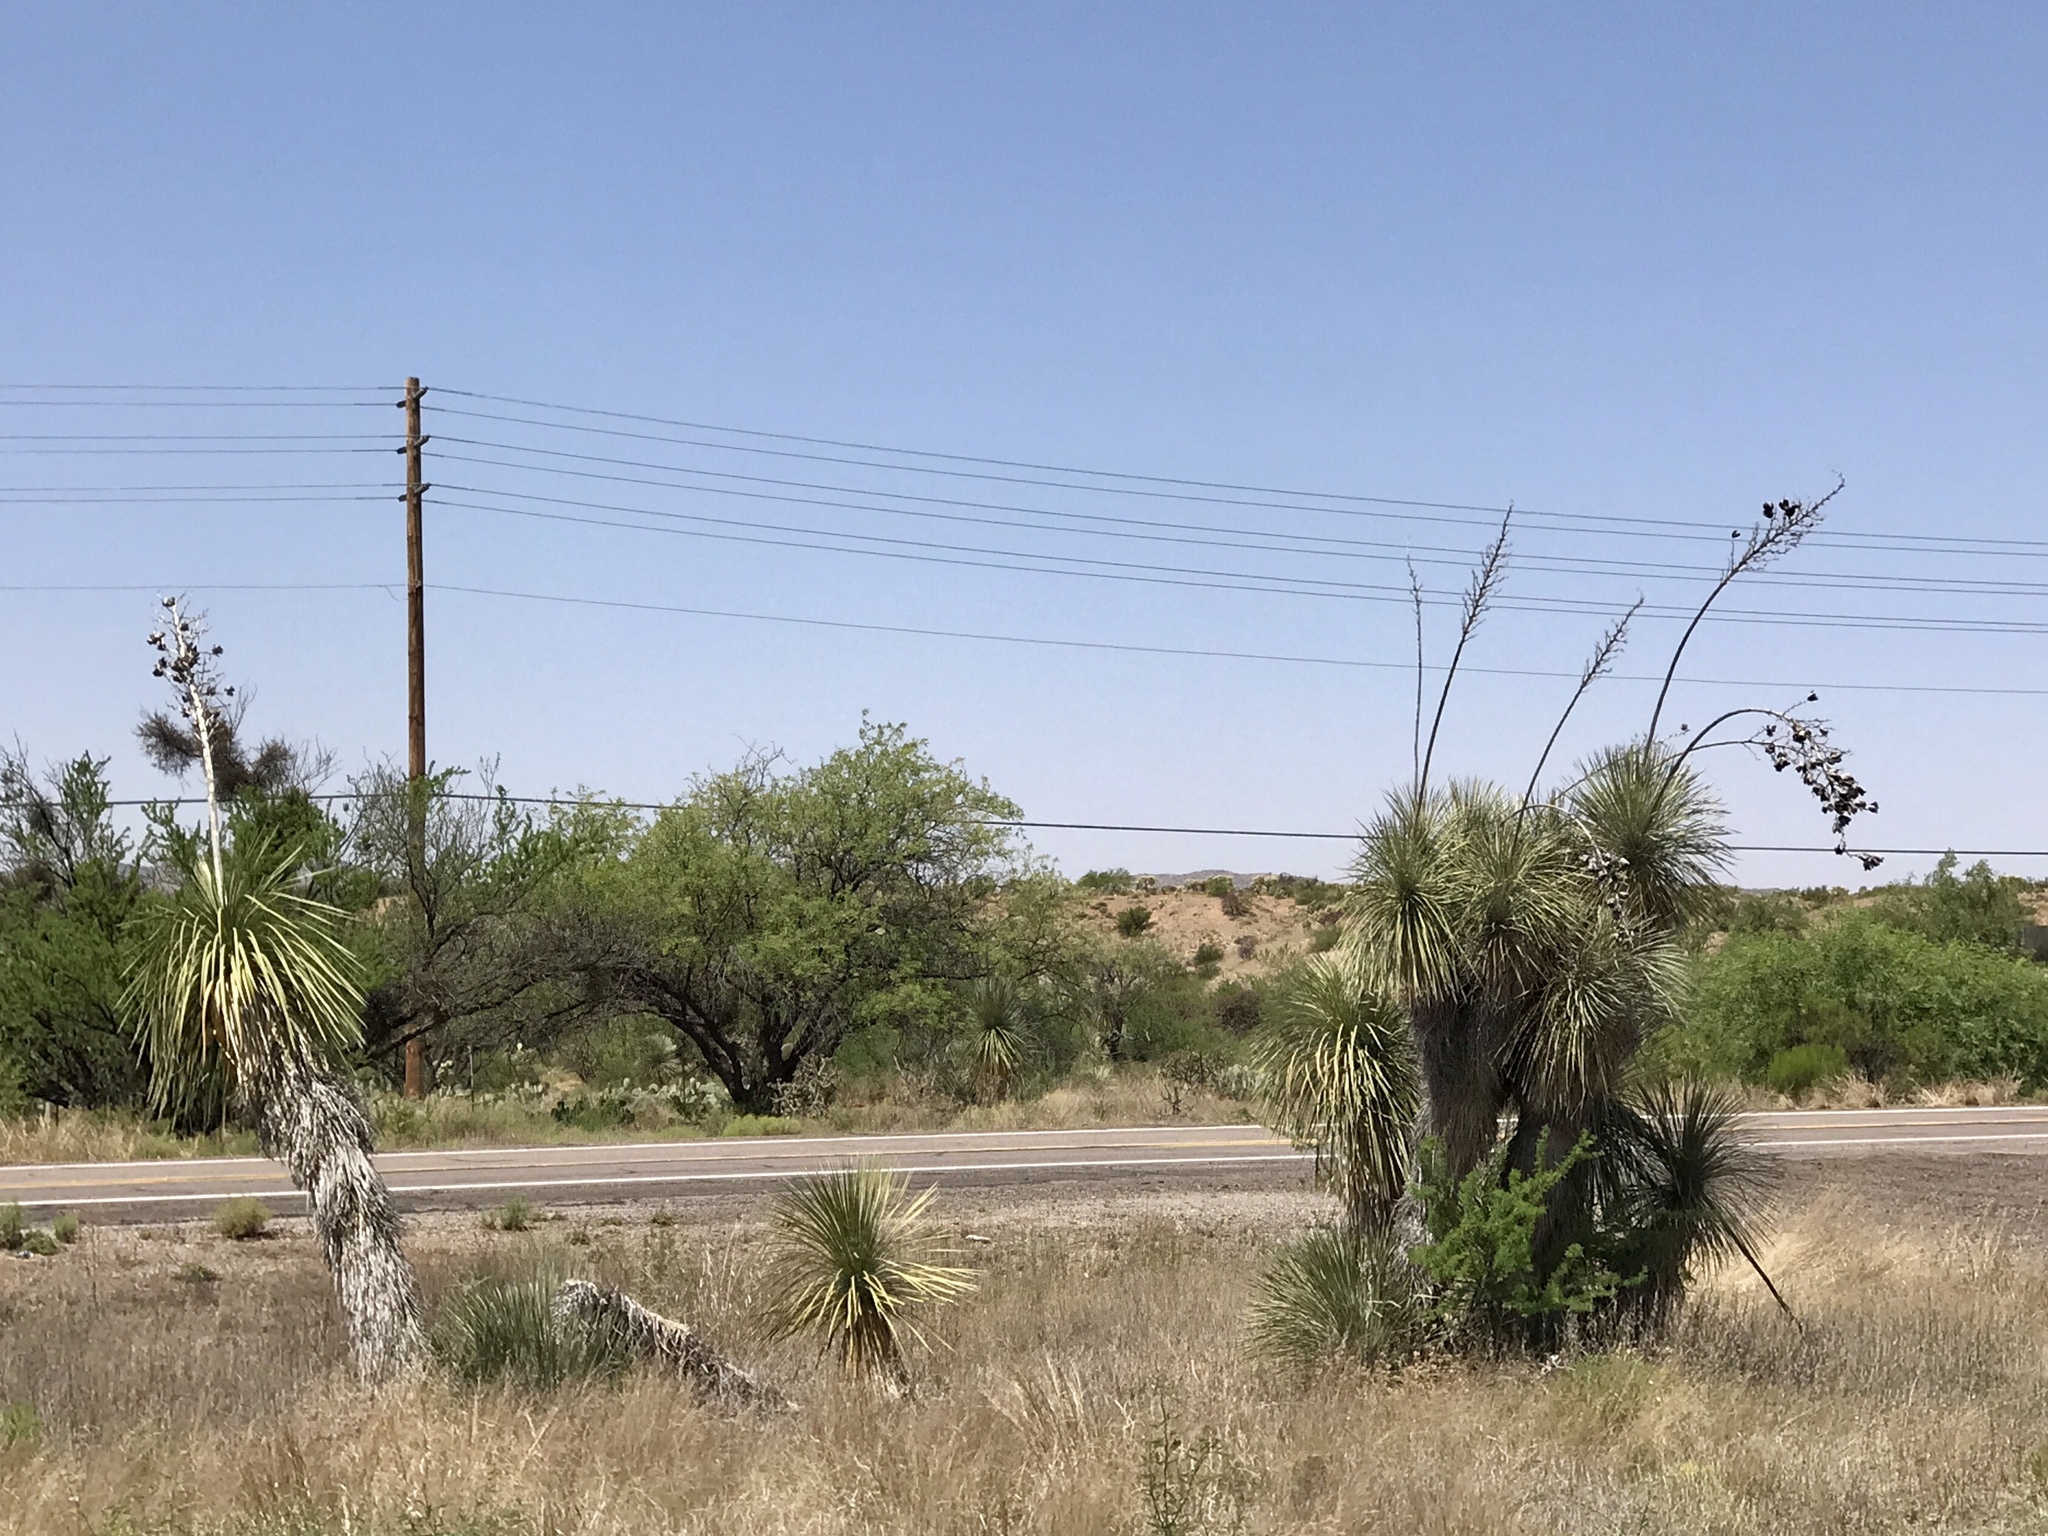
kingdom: Plantae
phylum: Tracheophyta
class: Liliopsida
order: Asparagales
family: Asparagaceae
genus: Yucca
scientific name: Yucca elata
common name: Palmella
